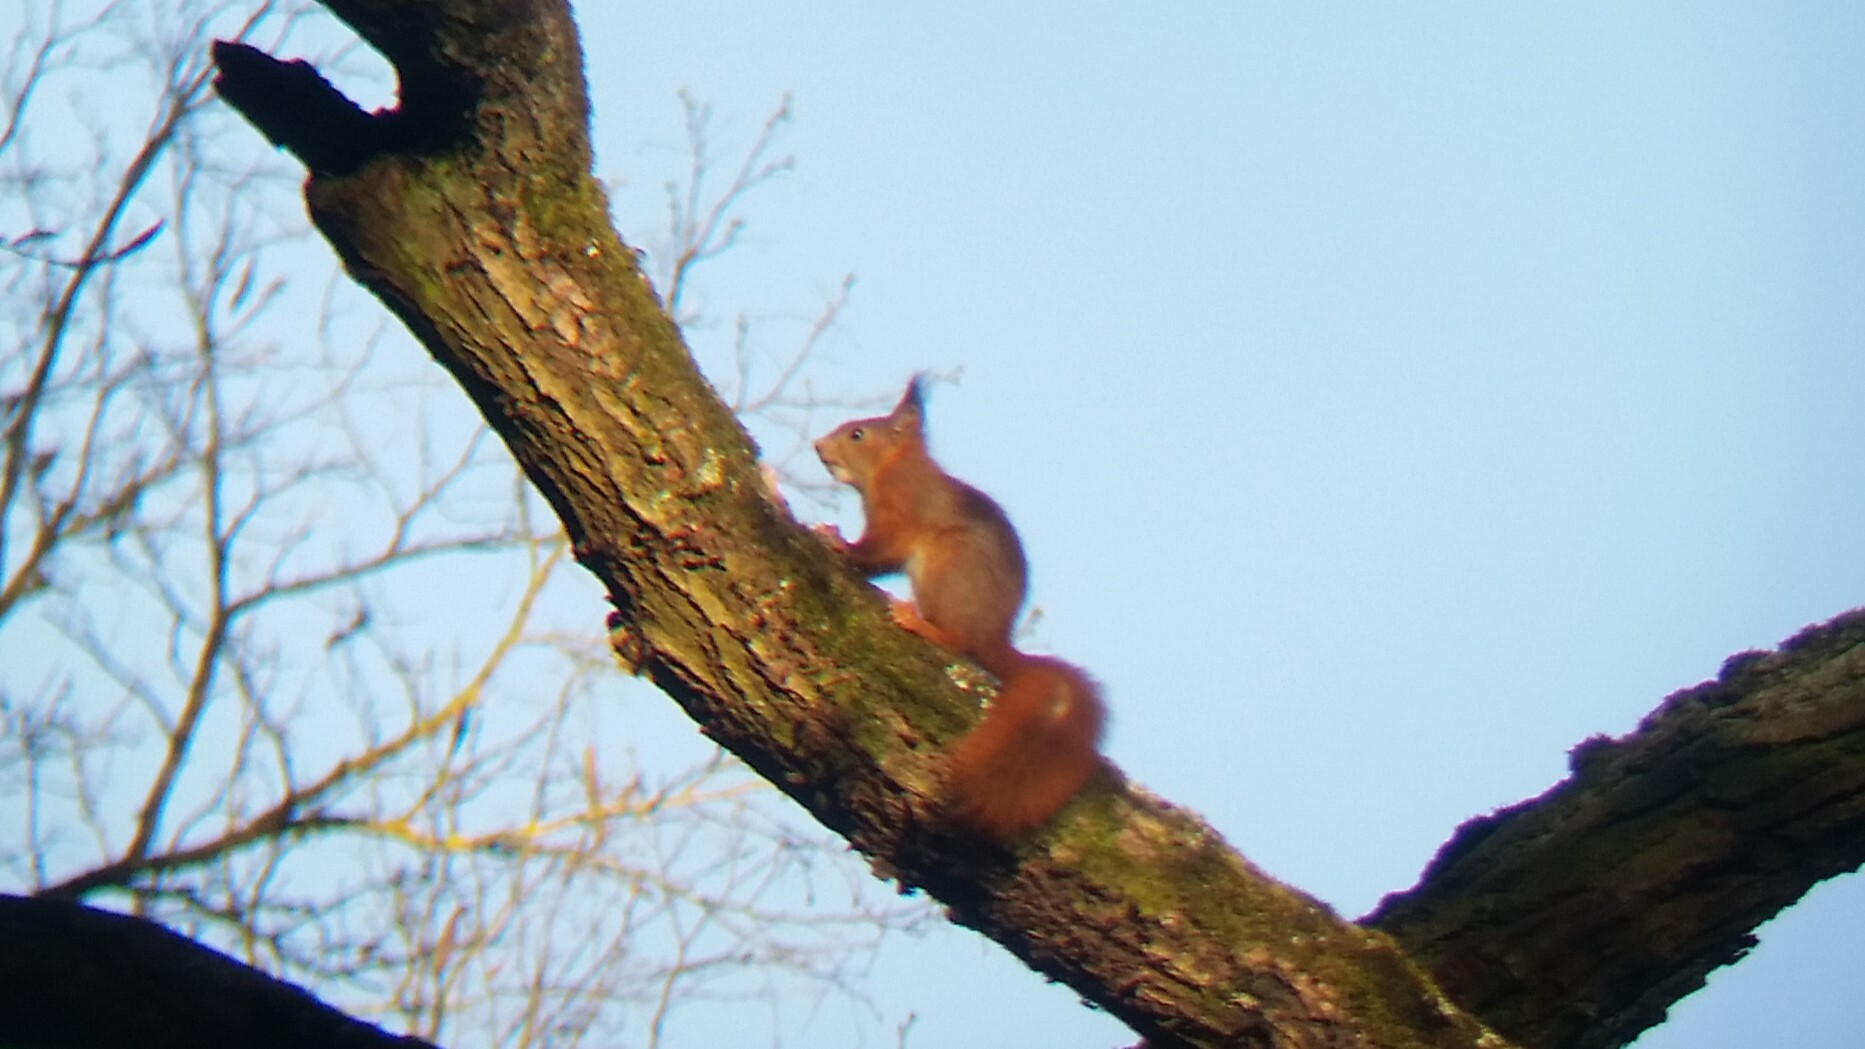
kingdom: Animalia
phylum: Chordata
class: Mammalia
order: Rodentia
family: Sciuridae
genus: Sciurus
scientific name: Sciurus vulgaris
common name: Eurasian red squirrel
